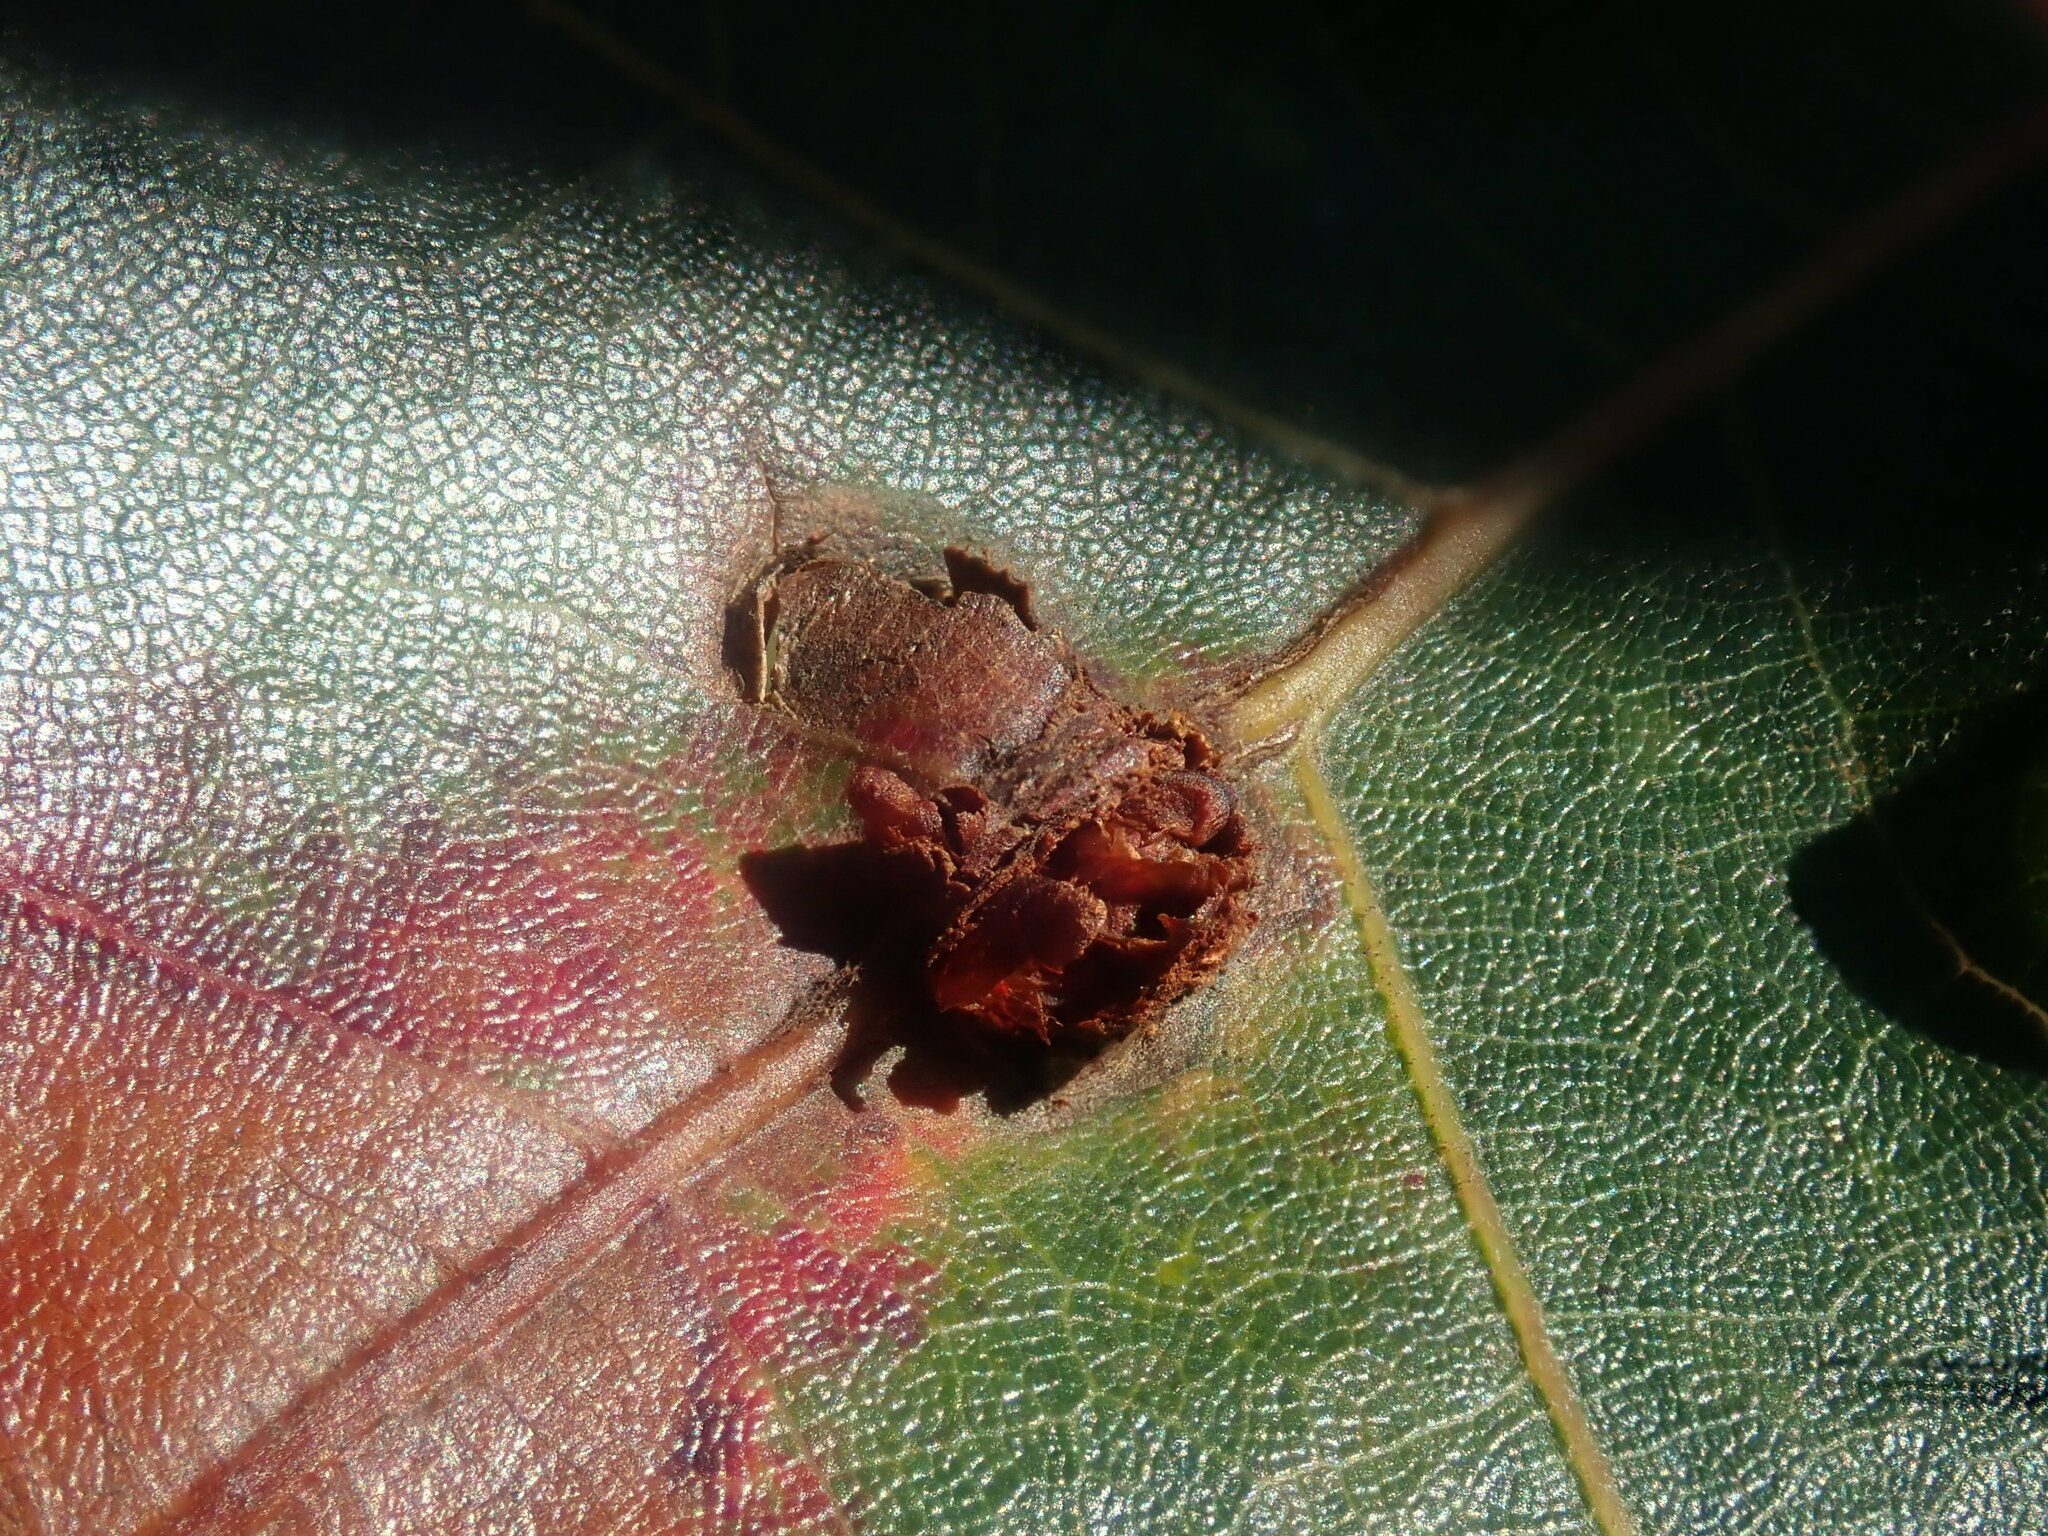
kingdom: Animalia
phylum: Arthropoda
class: Insecta
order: Hymenoptera
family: Cynipidae
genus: Kokkocynips
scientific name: Kokkocynips decidua
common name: Oak wheat gall
